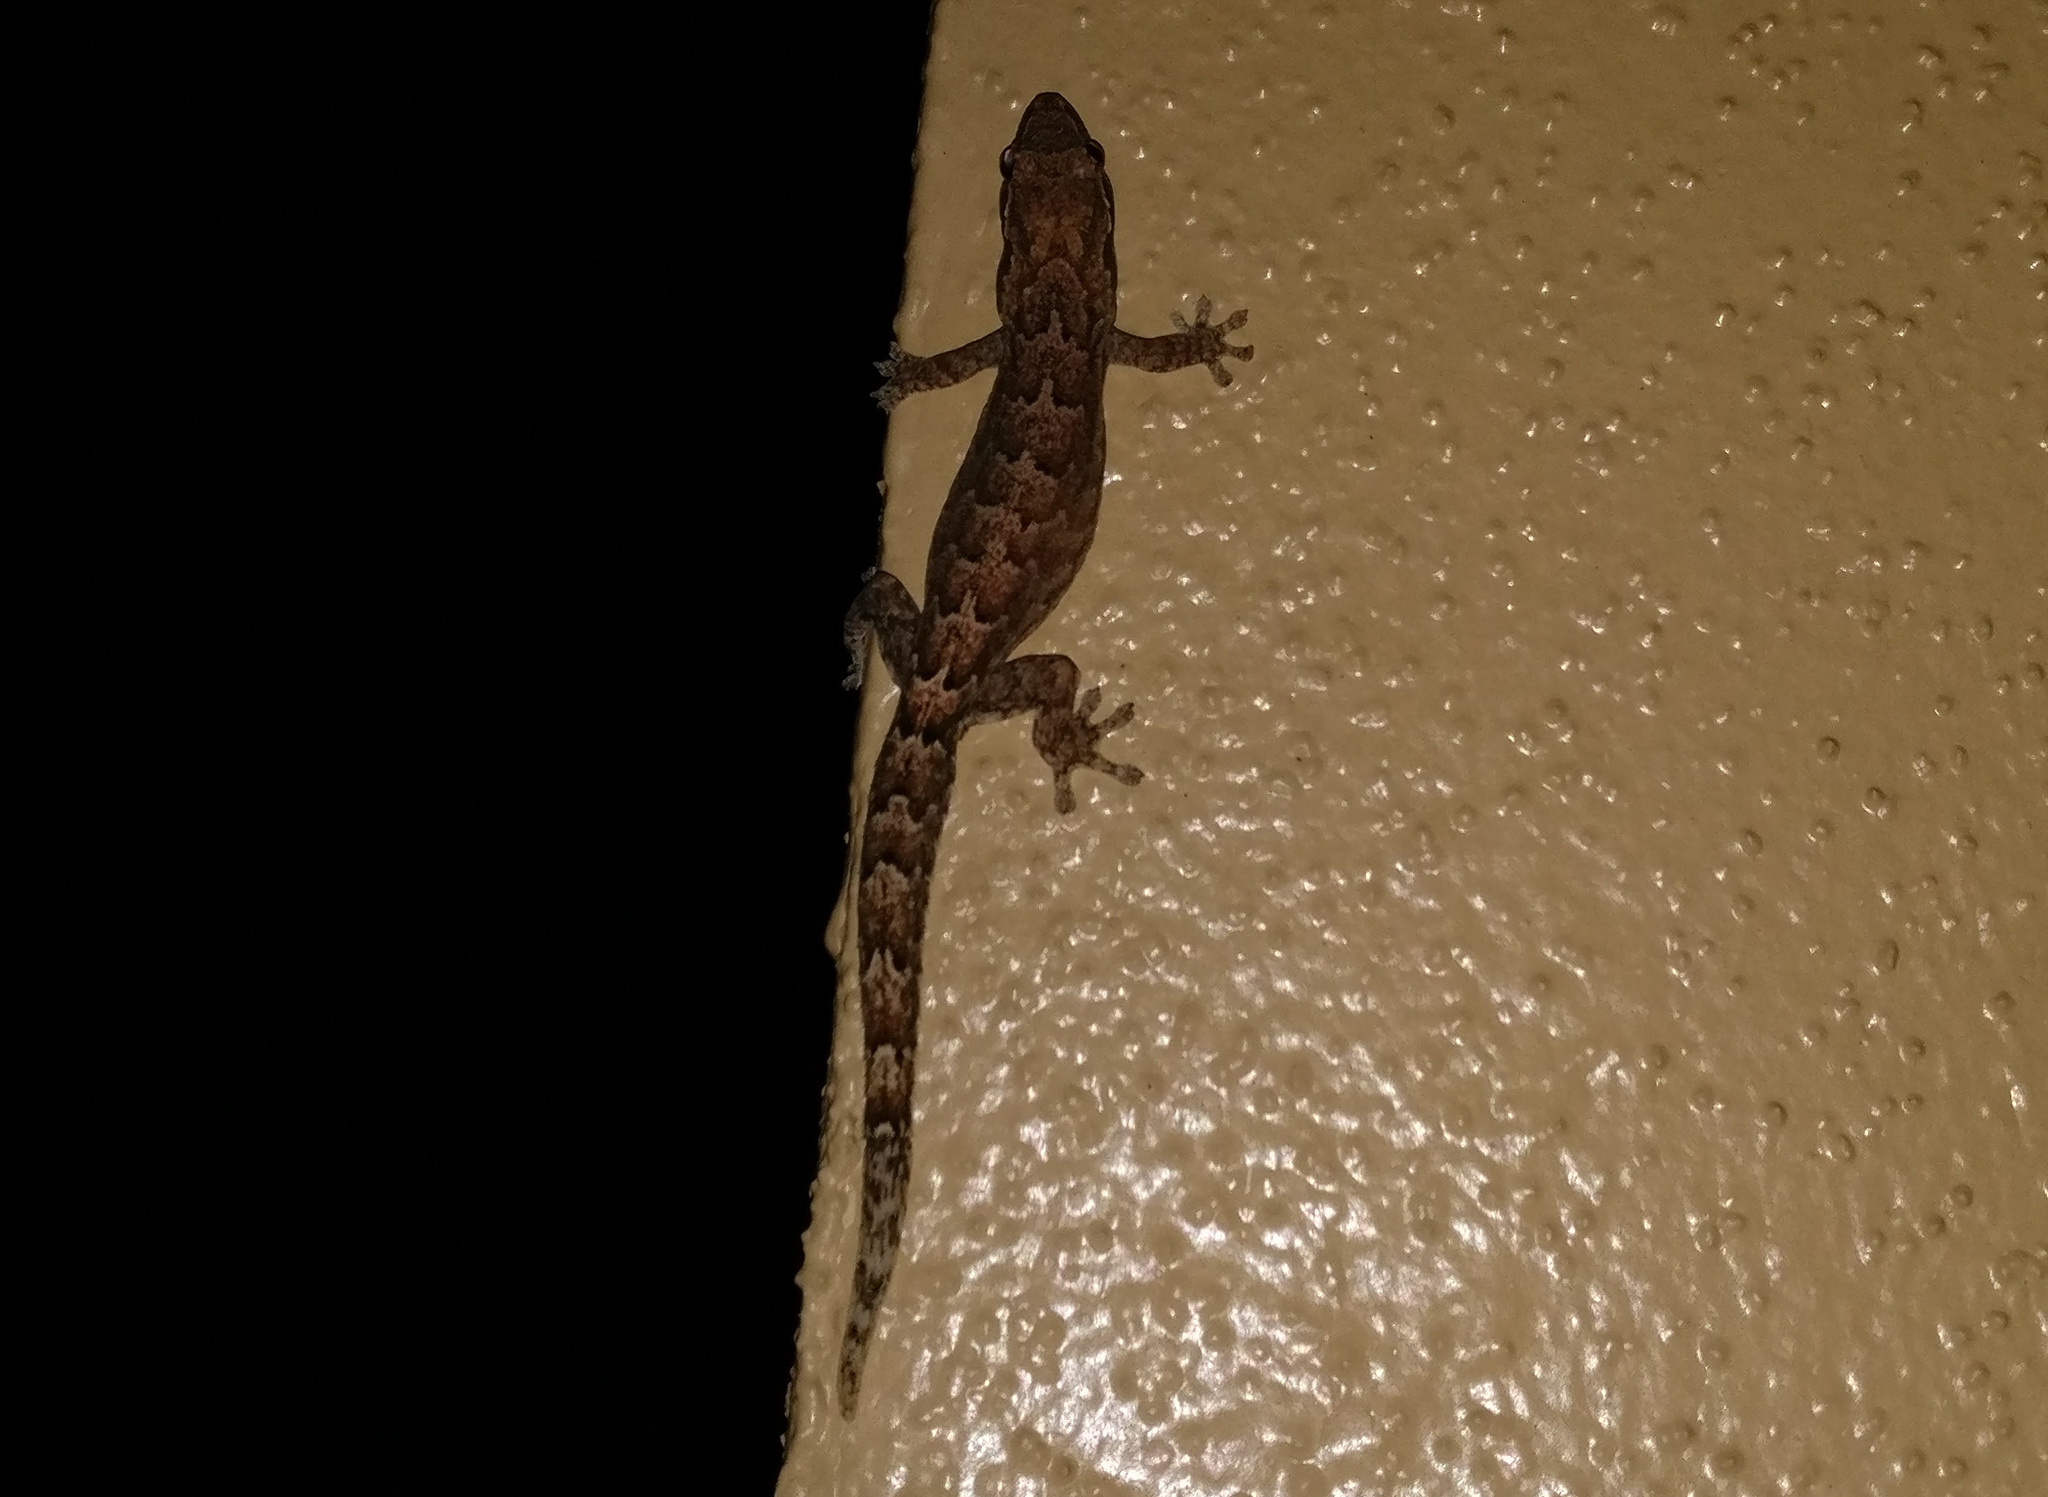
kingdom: Animalia
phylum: Chordata
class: Squamata
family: Gekkonidae
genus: Lepidodactylus
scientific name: Lepidodactylus lugubris
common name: Mourning gecko
